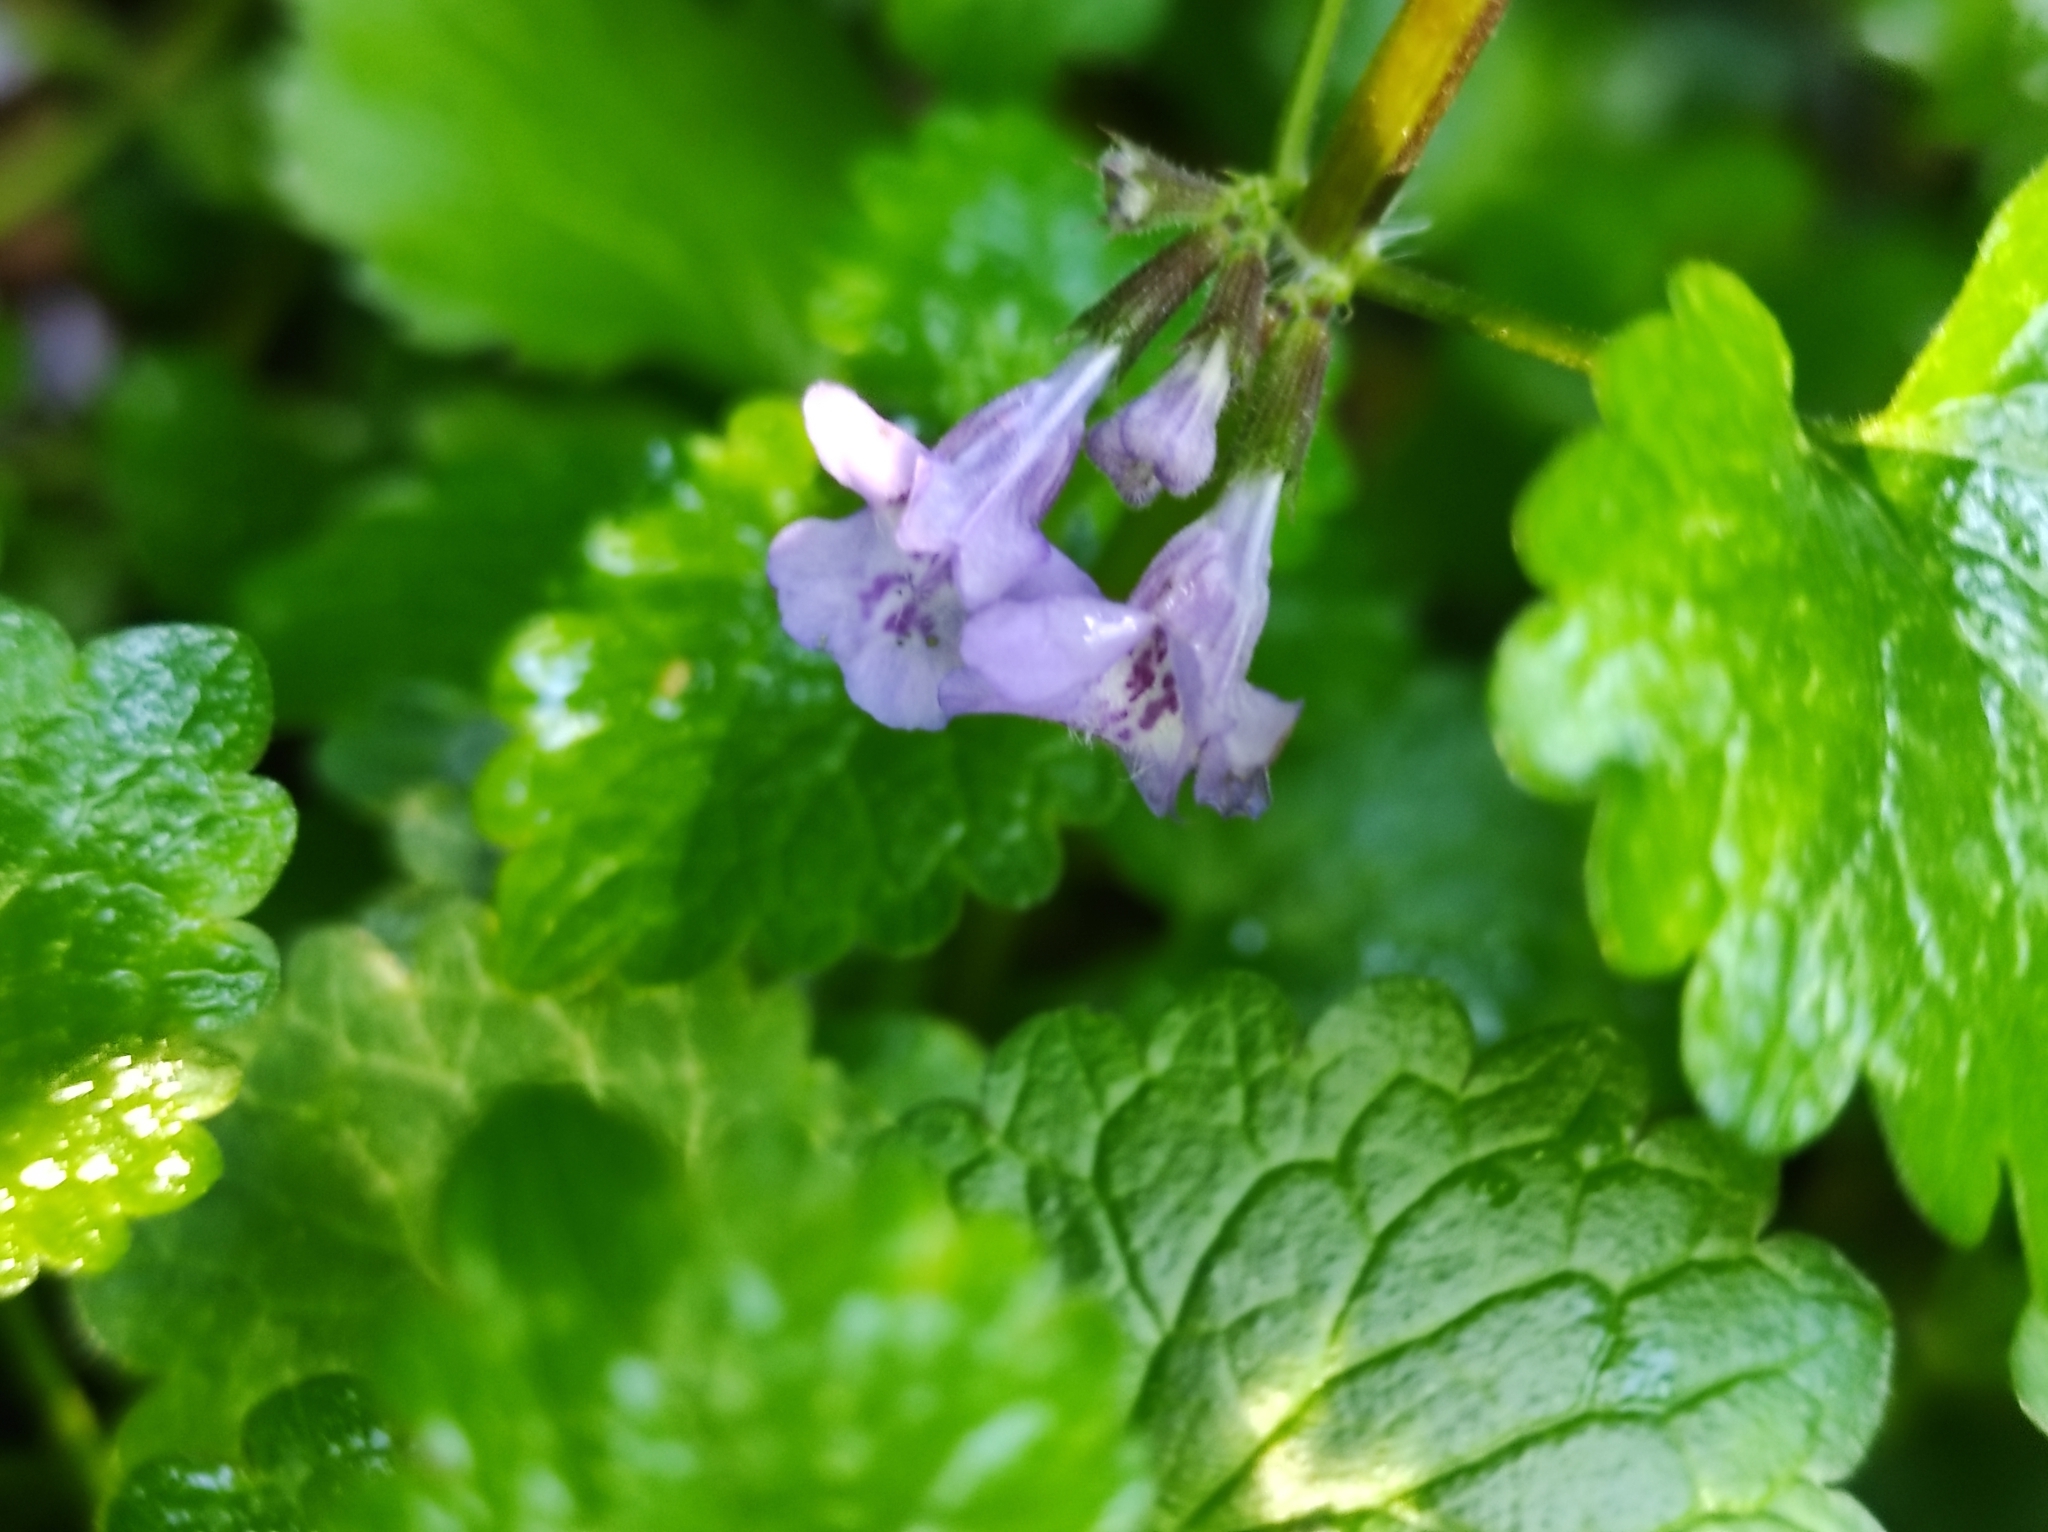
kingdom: Plantae
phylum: Tracheophyta
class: Magnoliopsida
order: Lamiales
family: Lamiaceae
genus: Glechoma
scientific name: Glechoma hederacea
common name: Ground ivy
